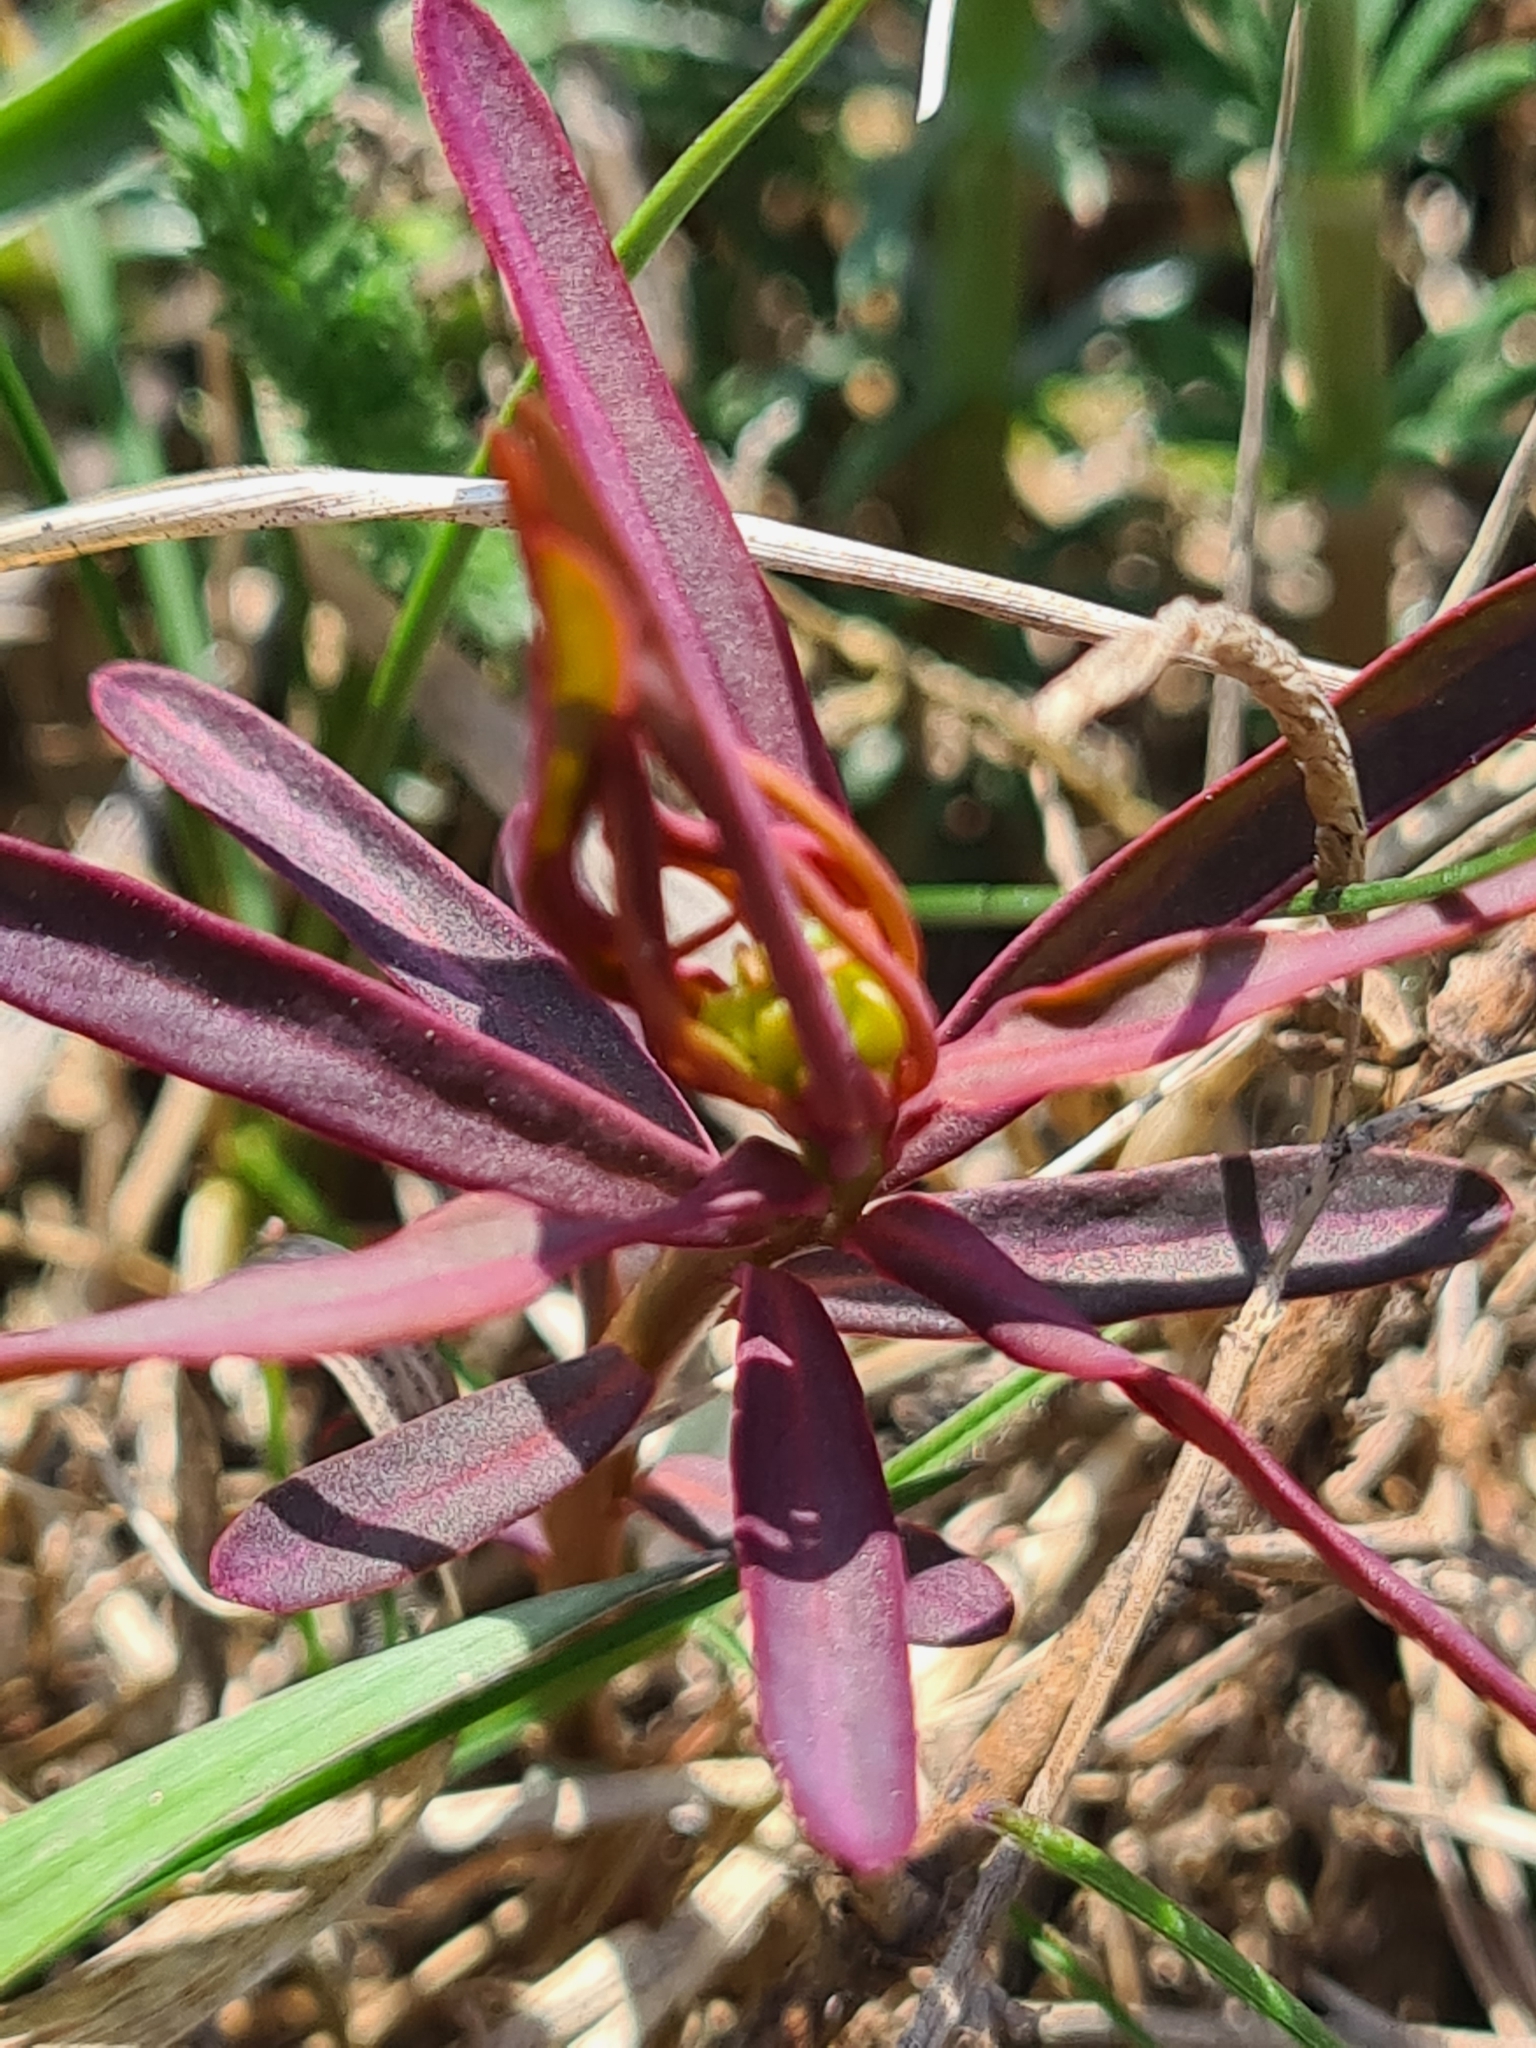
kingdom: Plantae
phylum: Tracheophyta
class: Magnoliopsida
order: Malpighiales
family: Euphorbiaceae
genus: Euphorbia
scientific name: Euphorbia esula
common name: Leafy spurge
